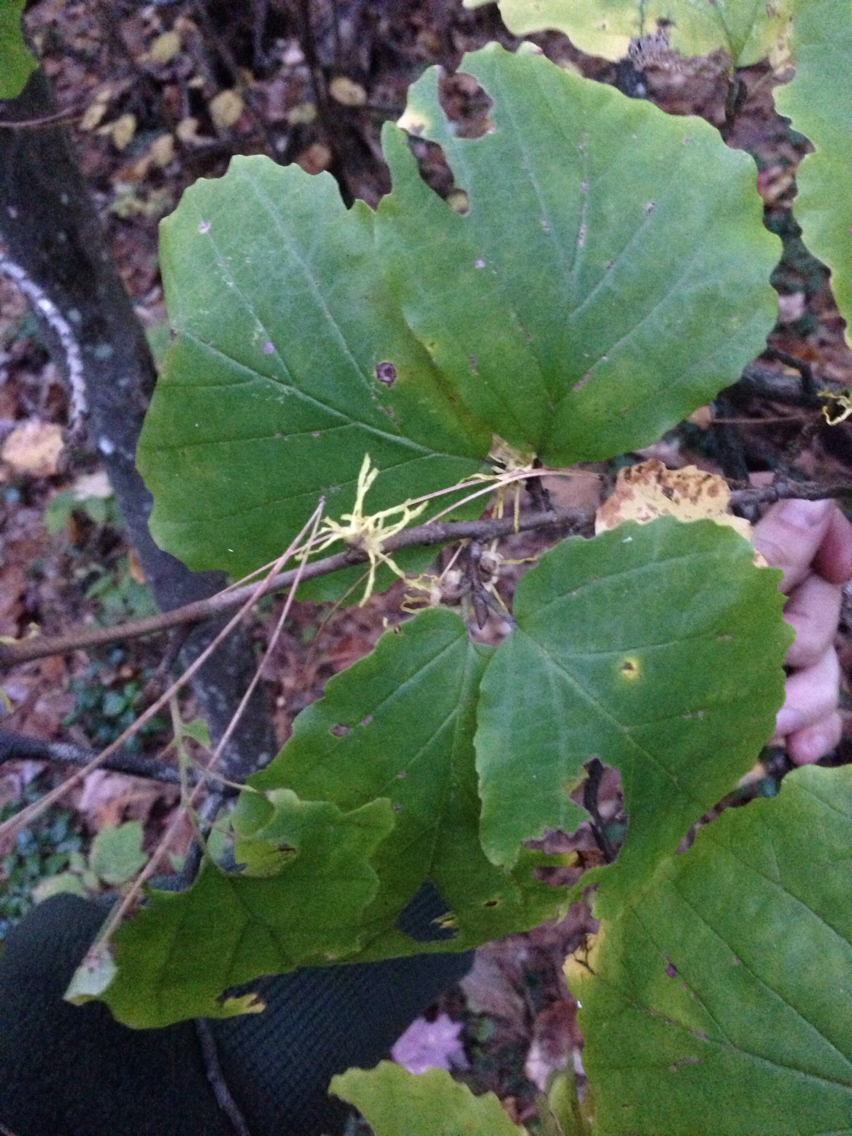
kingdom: Plantae
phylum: Tracheophyta
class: Magnoliopsida
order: Saxifragales
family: Hamamelidaceae
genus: Hamamelis
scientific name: Hamamelis virginiana
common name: Witch-hazel
